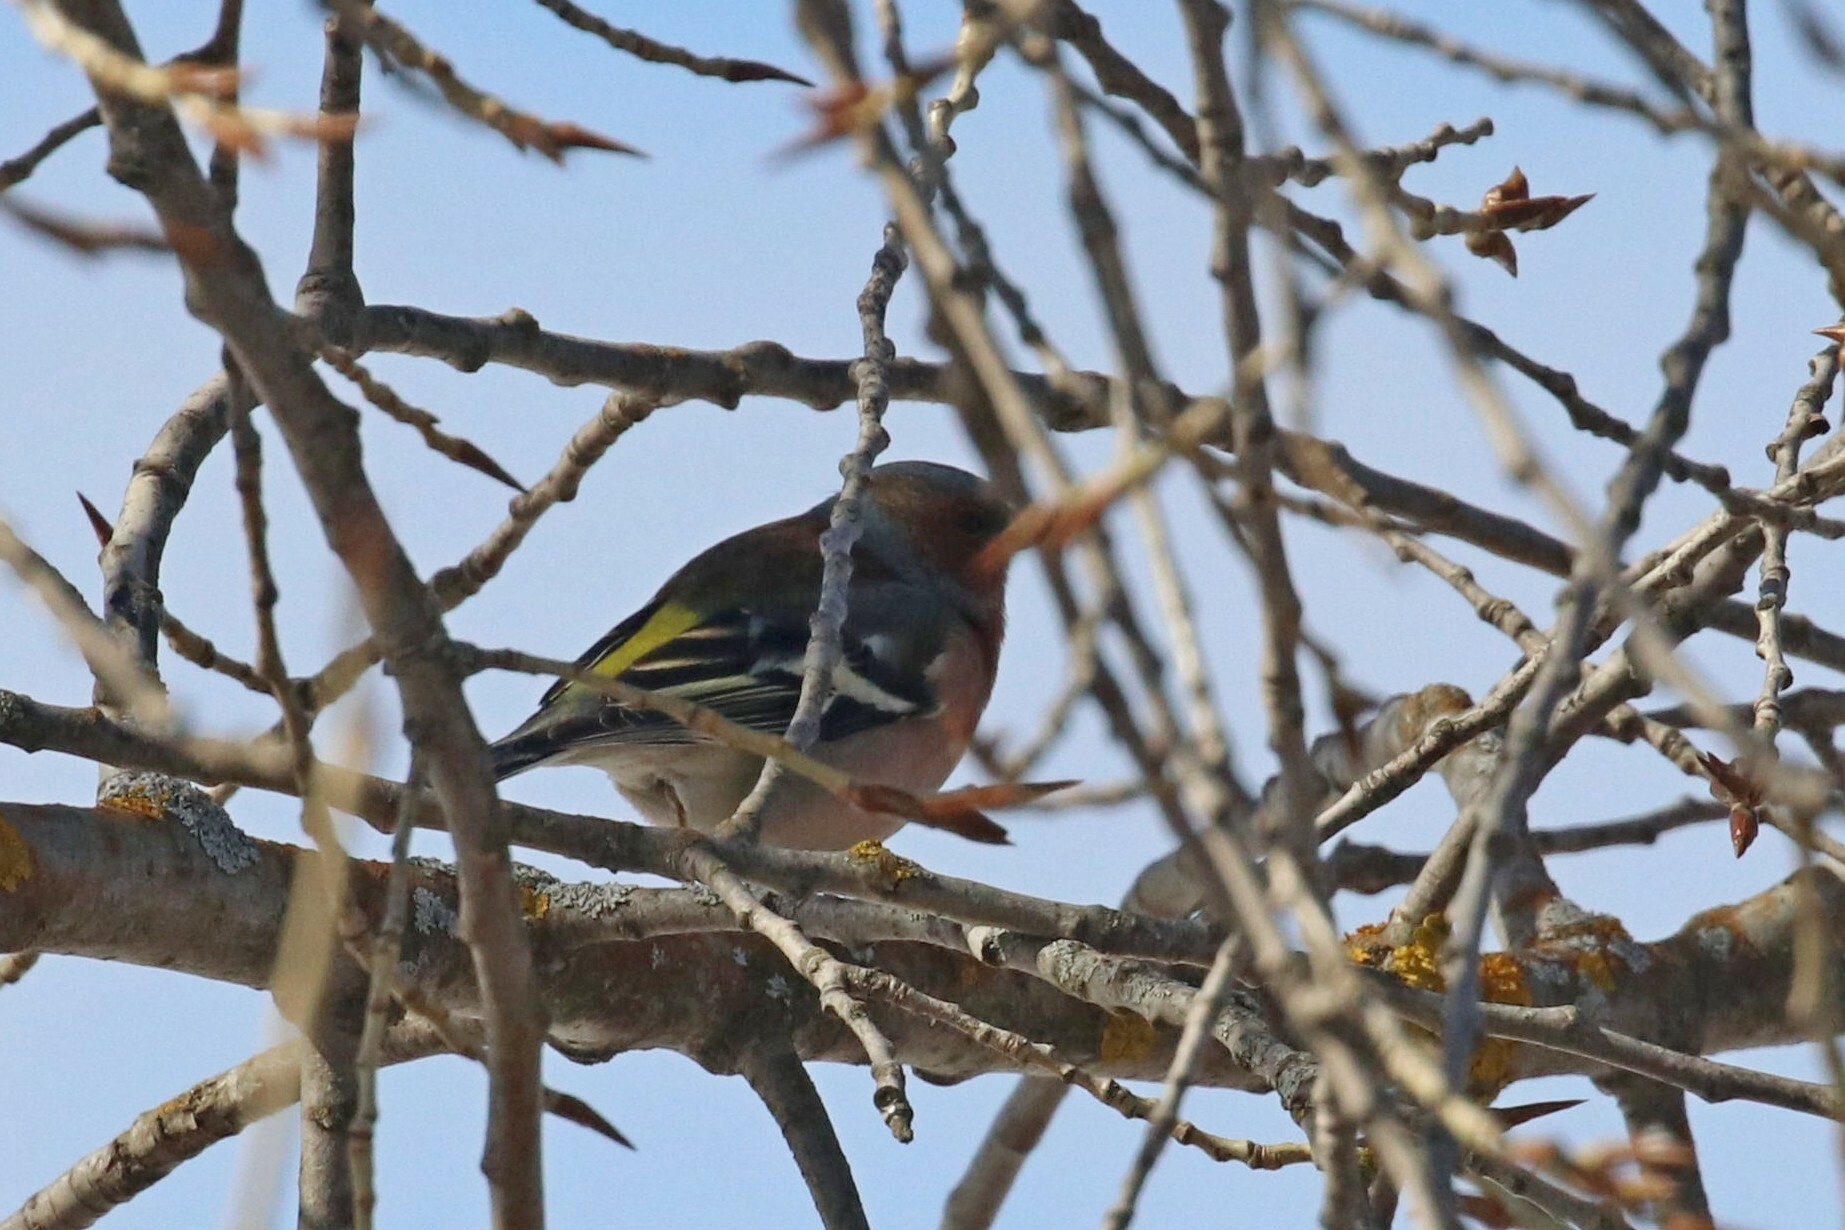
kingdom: Animalia
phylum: Chordata
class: Aves
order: Passeriformes
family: Fringillidae
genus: Fringilla
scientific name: Fringilla coelebs
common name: Common chaffinch
